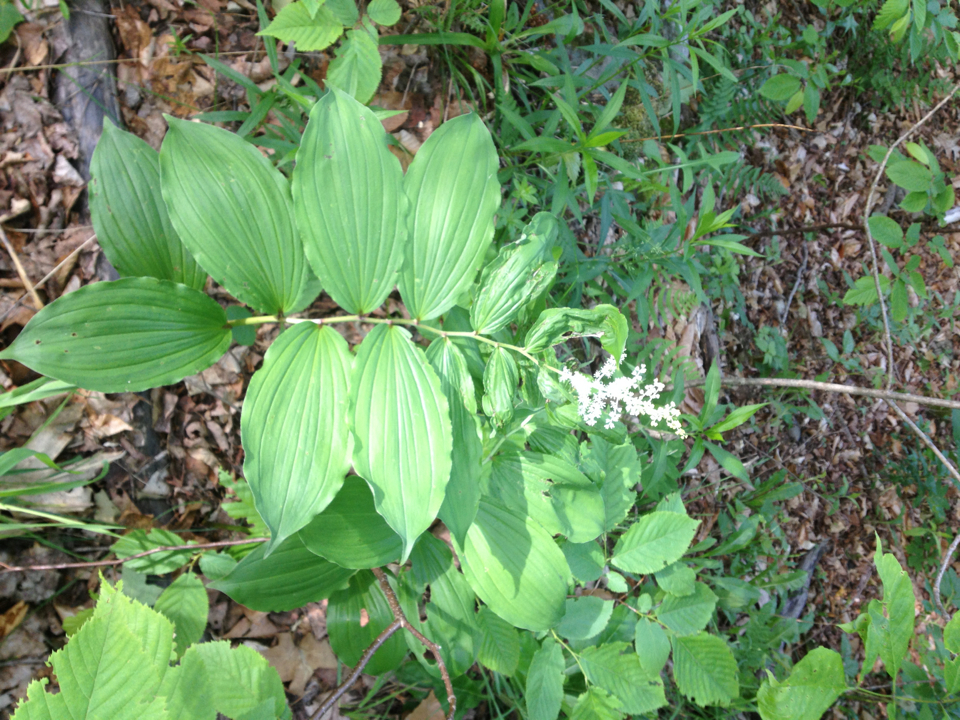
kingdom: Plantae
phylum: Tracheophyta
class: Liliopsida
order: Asparagales
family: Asparagaceae
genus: Maianthemum
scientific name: Maianthemum racemosum
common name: False spikenard
